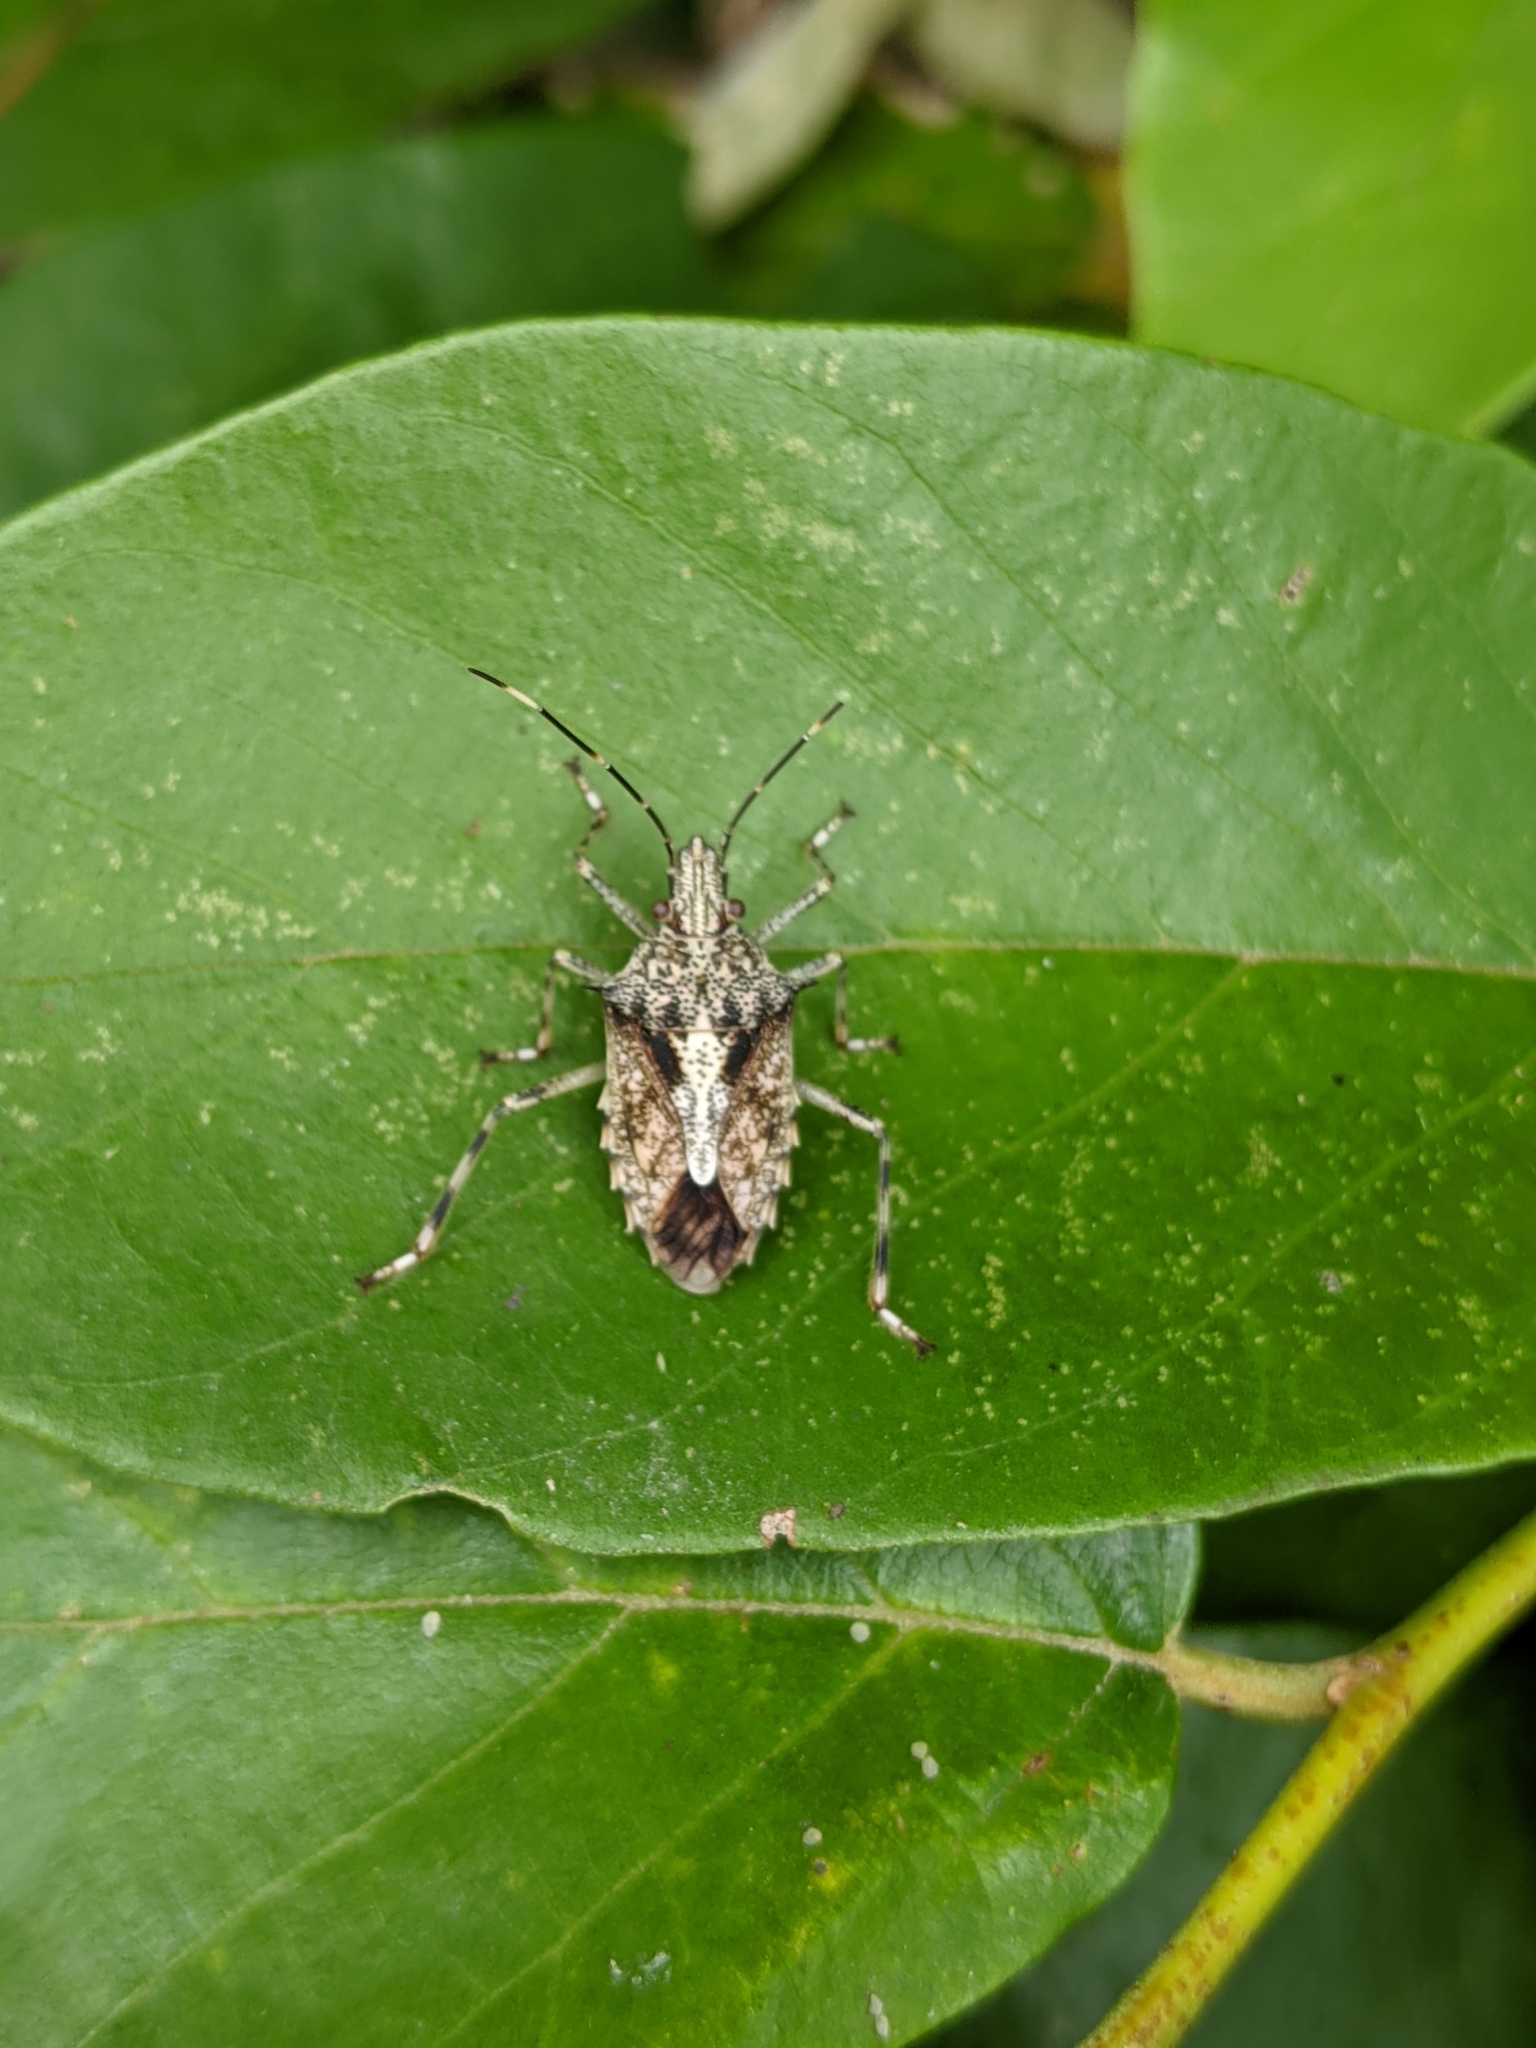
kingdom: Animalia
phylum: Arthropoda
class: Insecta
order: Hemiptera
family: Pentatomidae
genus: Bromocoris
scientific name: Bromocoris
